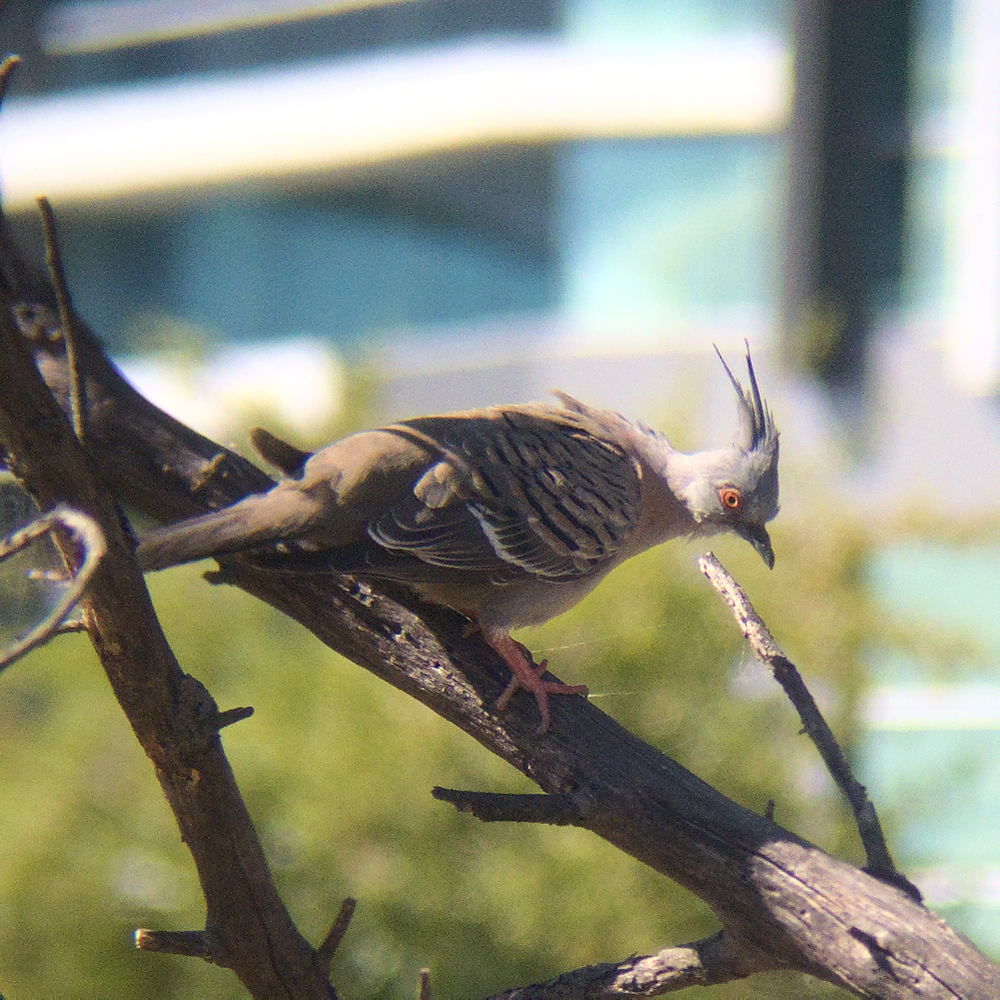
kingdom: Animalia
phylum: Chordata
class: Aves
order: Columbiformes
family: Columbidae
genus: Ocyphaps
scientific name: Ocyphaps lophotes
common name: Crested pigeon
